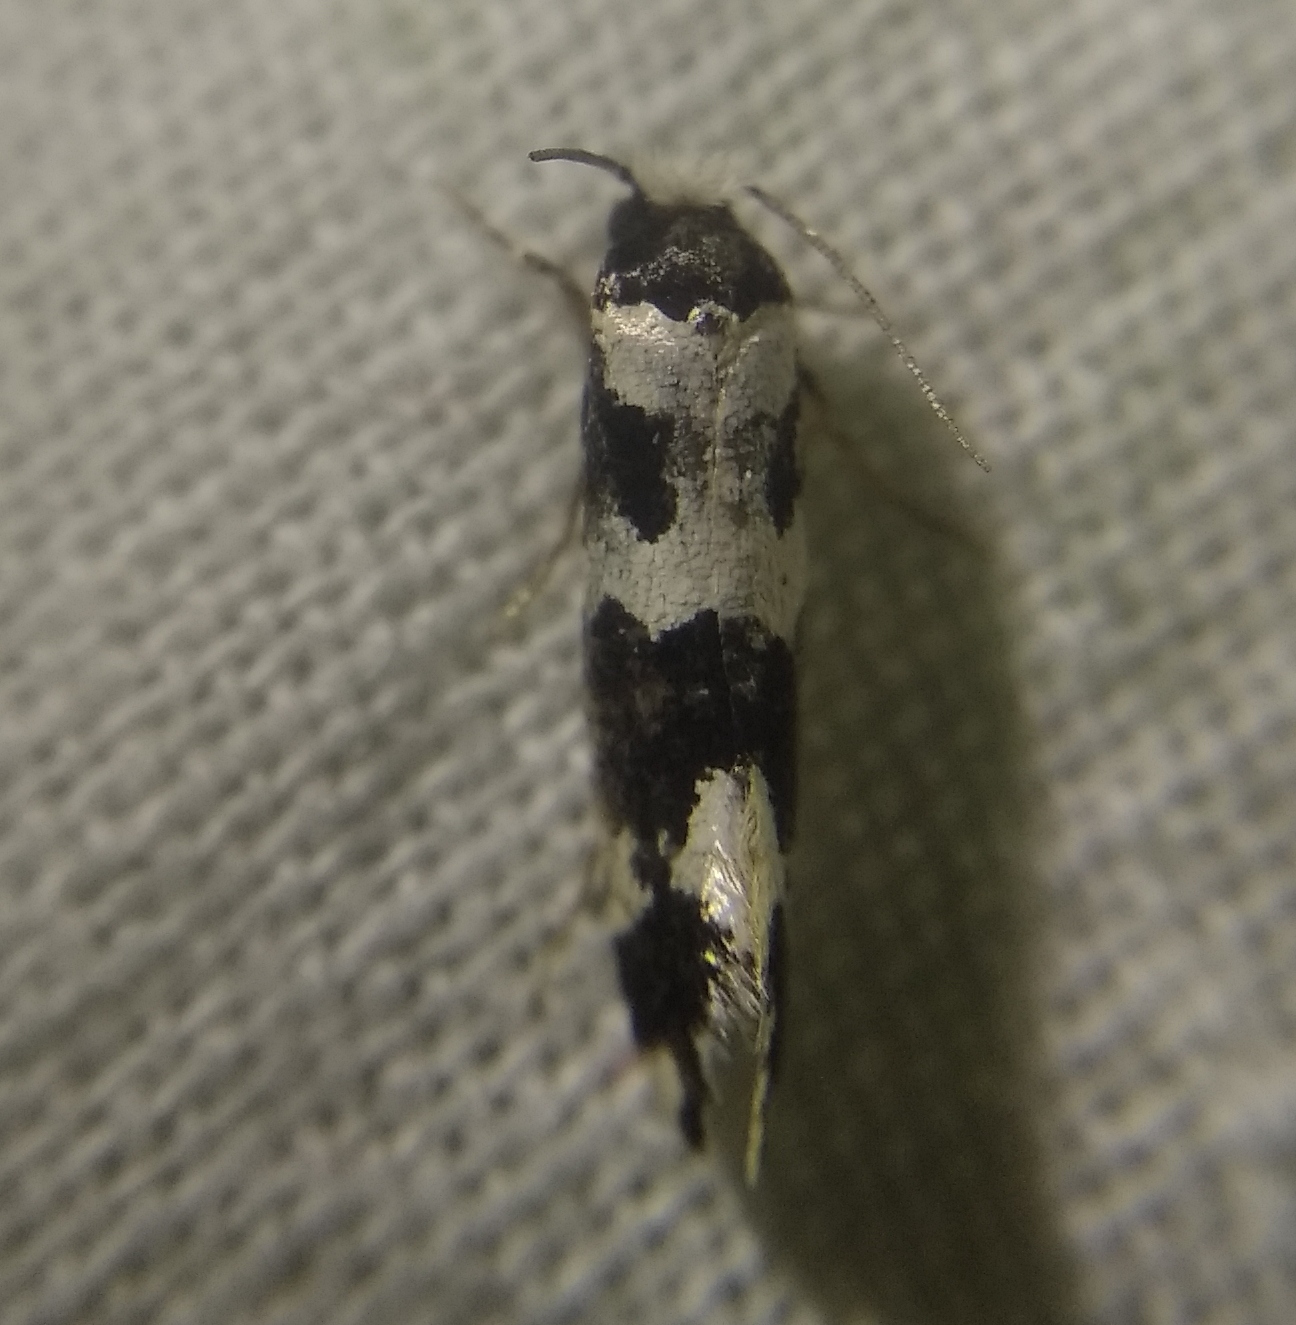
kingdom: Animalia
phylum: Arthropoda
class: Insecta
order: Lepidoptera
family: Tineidae
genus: Neurothaumasia
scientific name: Neurothaumasia ankerella
